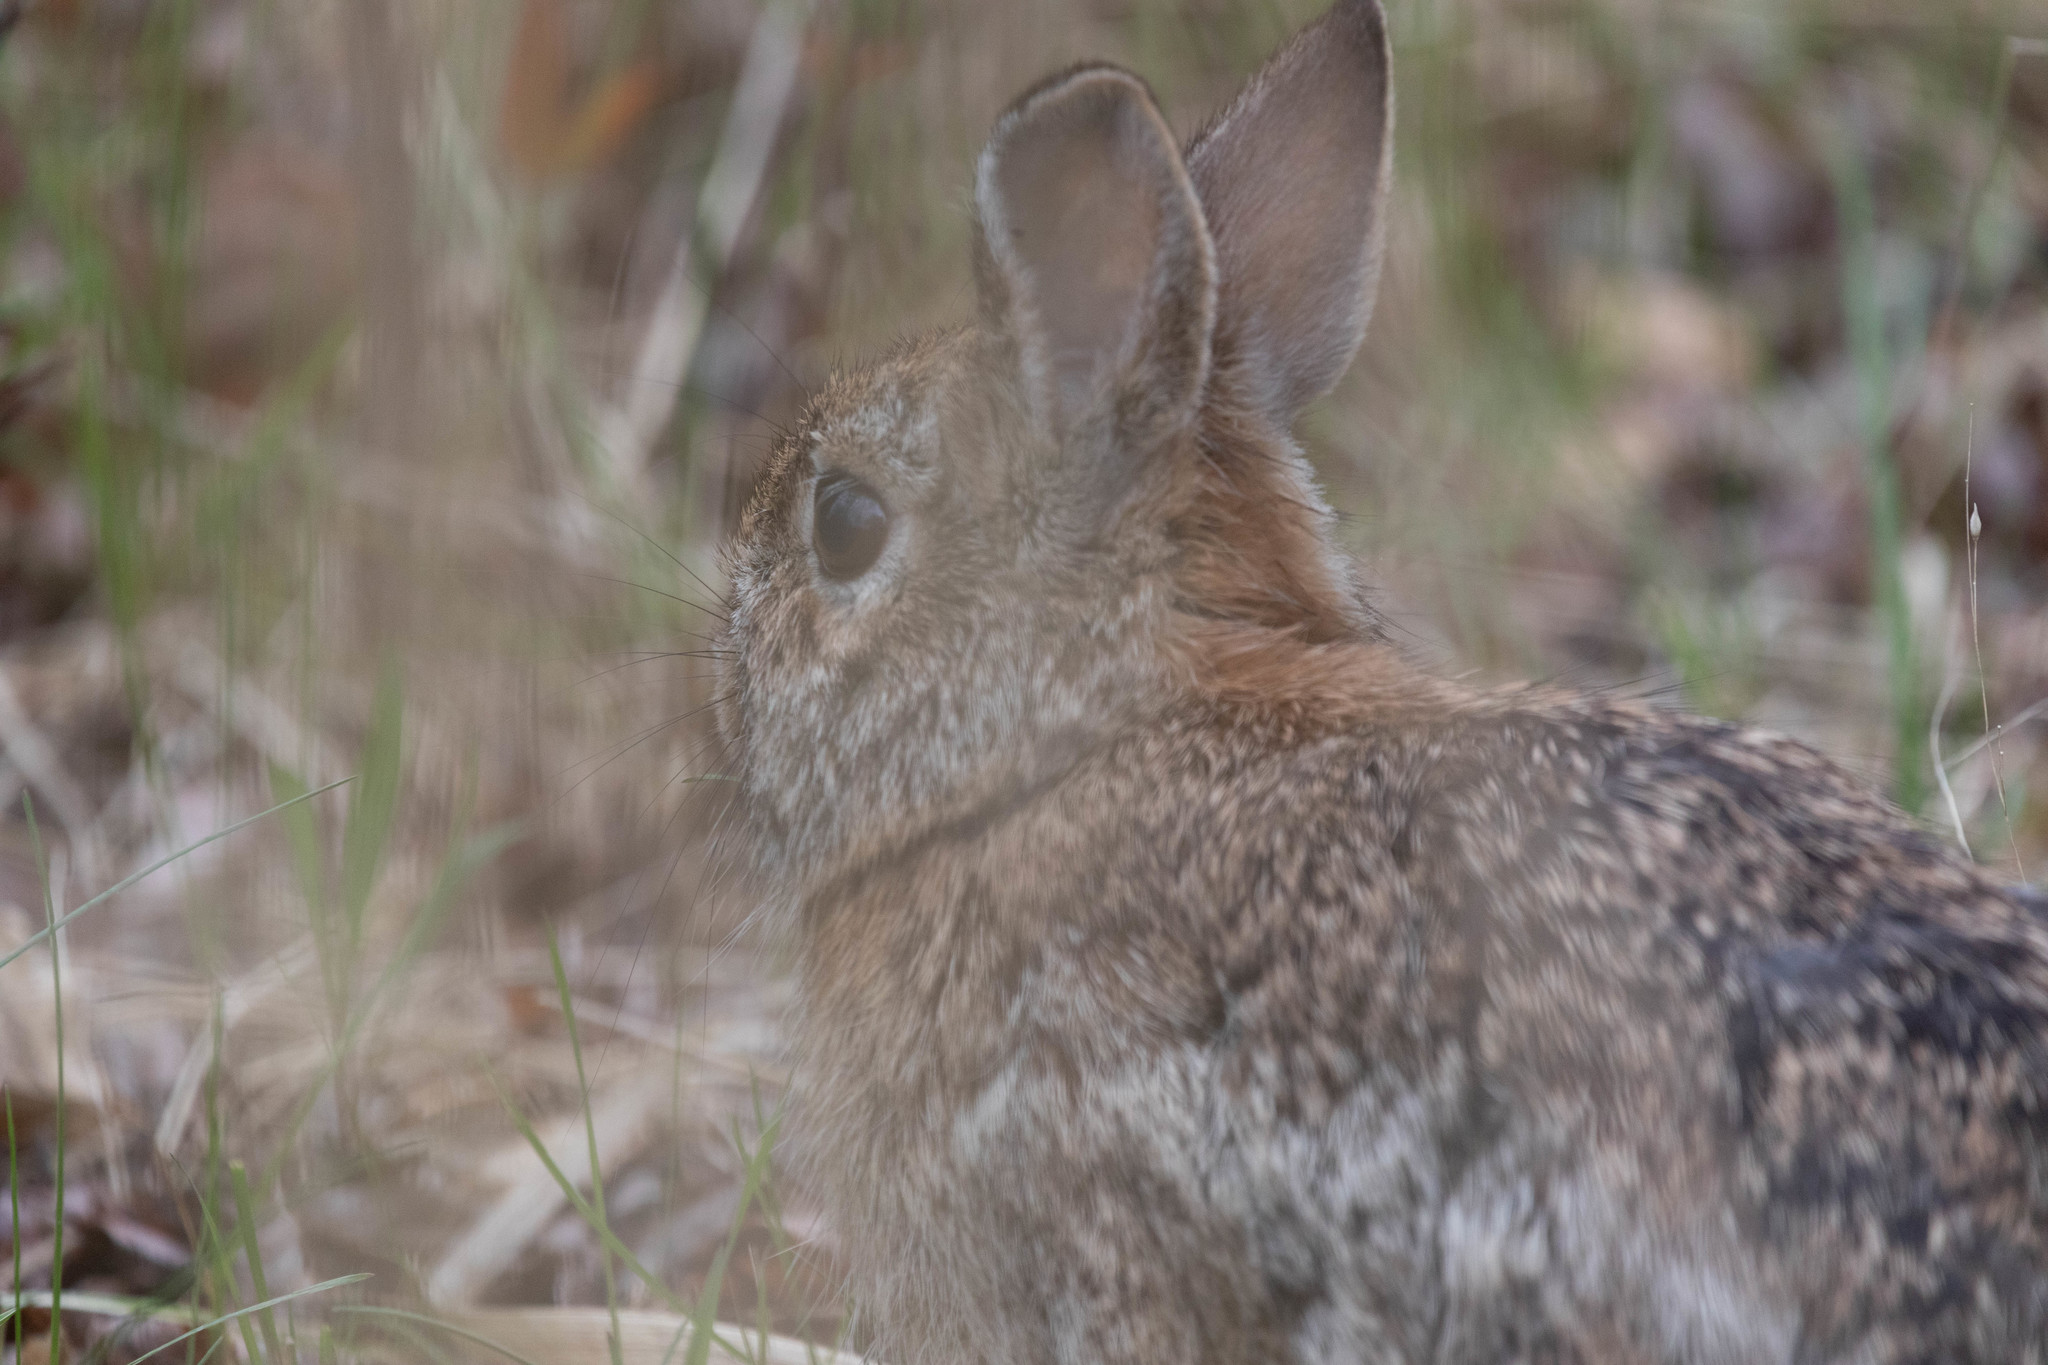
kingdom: Animalia
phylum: Chordata
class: Mammalia
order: Lagomorpha
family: Leporidae
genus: Sylvilagus
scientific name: Sylvilagus floridanus
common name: Eastern cottontail
